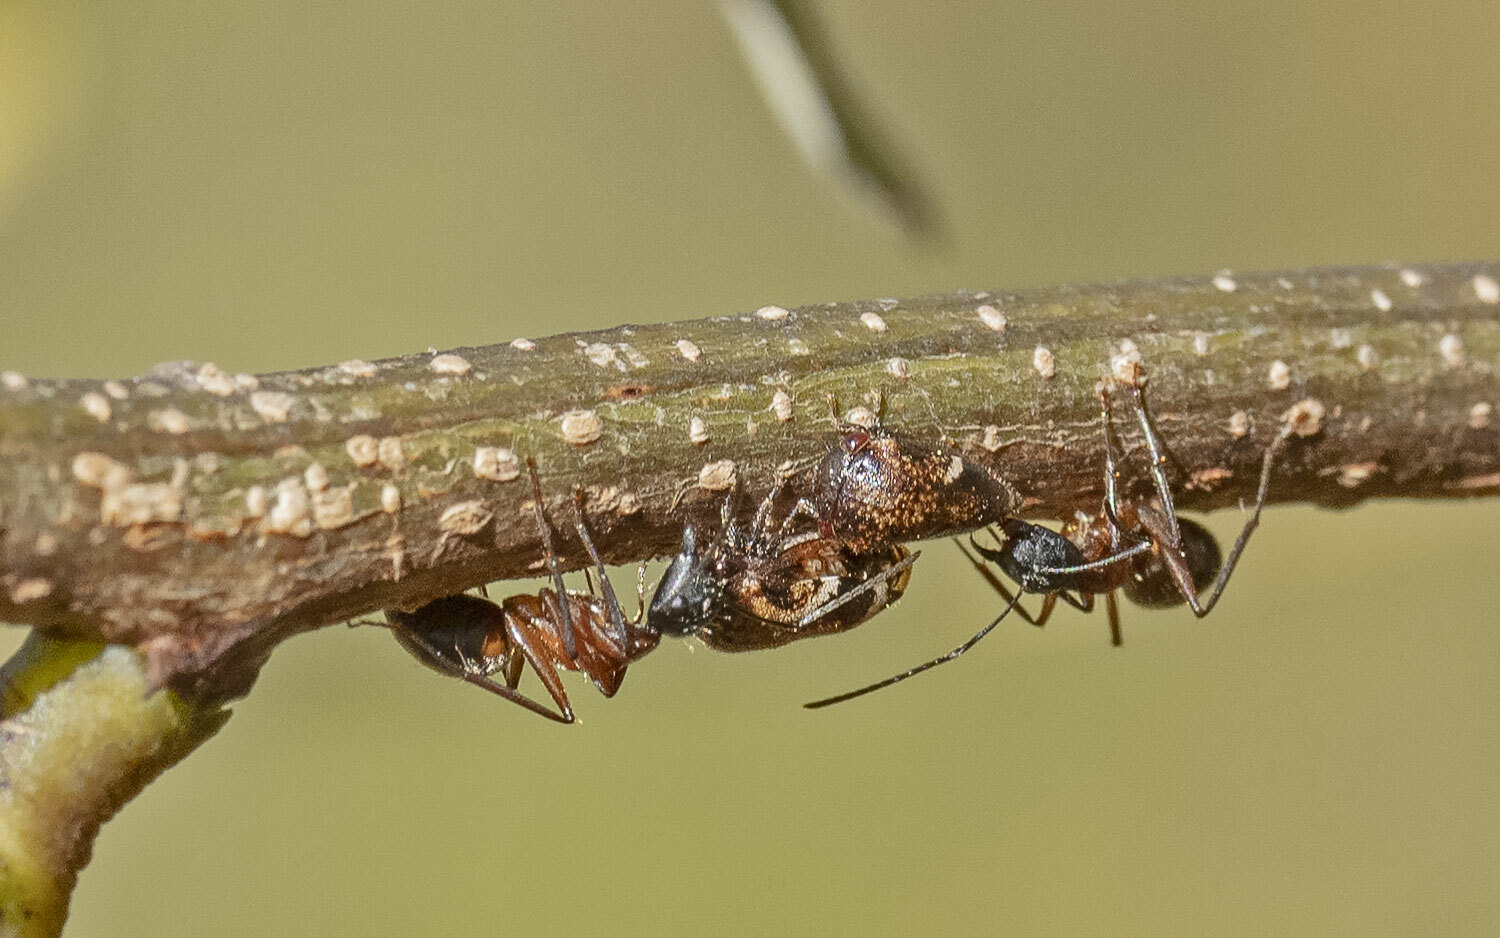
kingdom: Animalia
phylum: Arthropoda
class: Insecta
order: Hemiptera
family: Membracidae
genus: Vanduzea
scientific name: Vanduzea arquata
